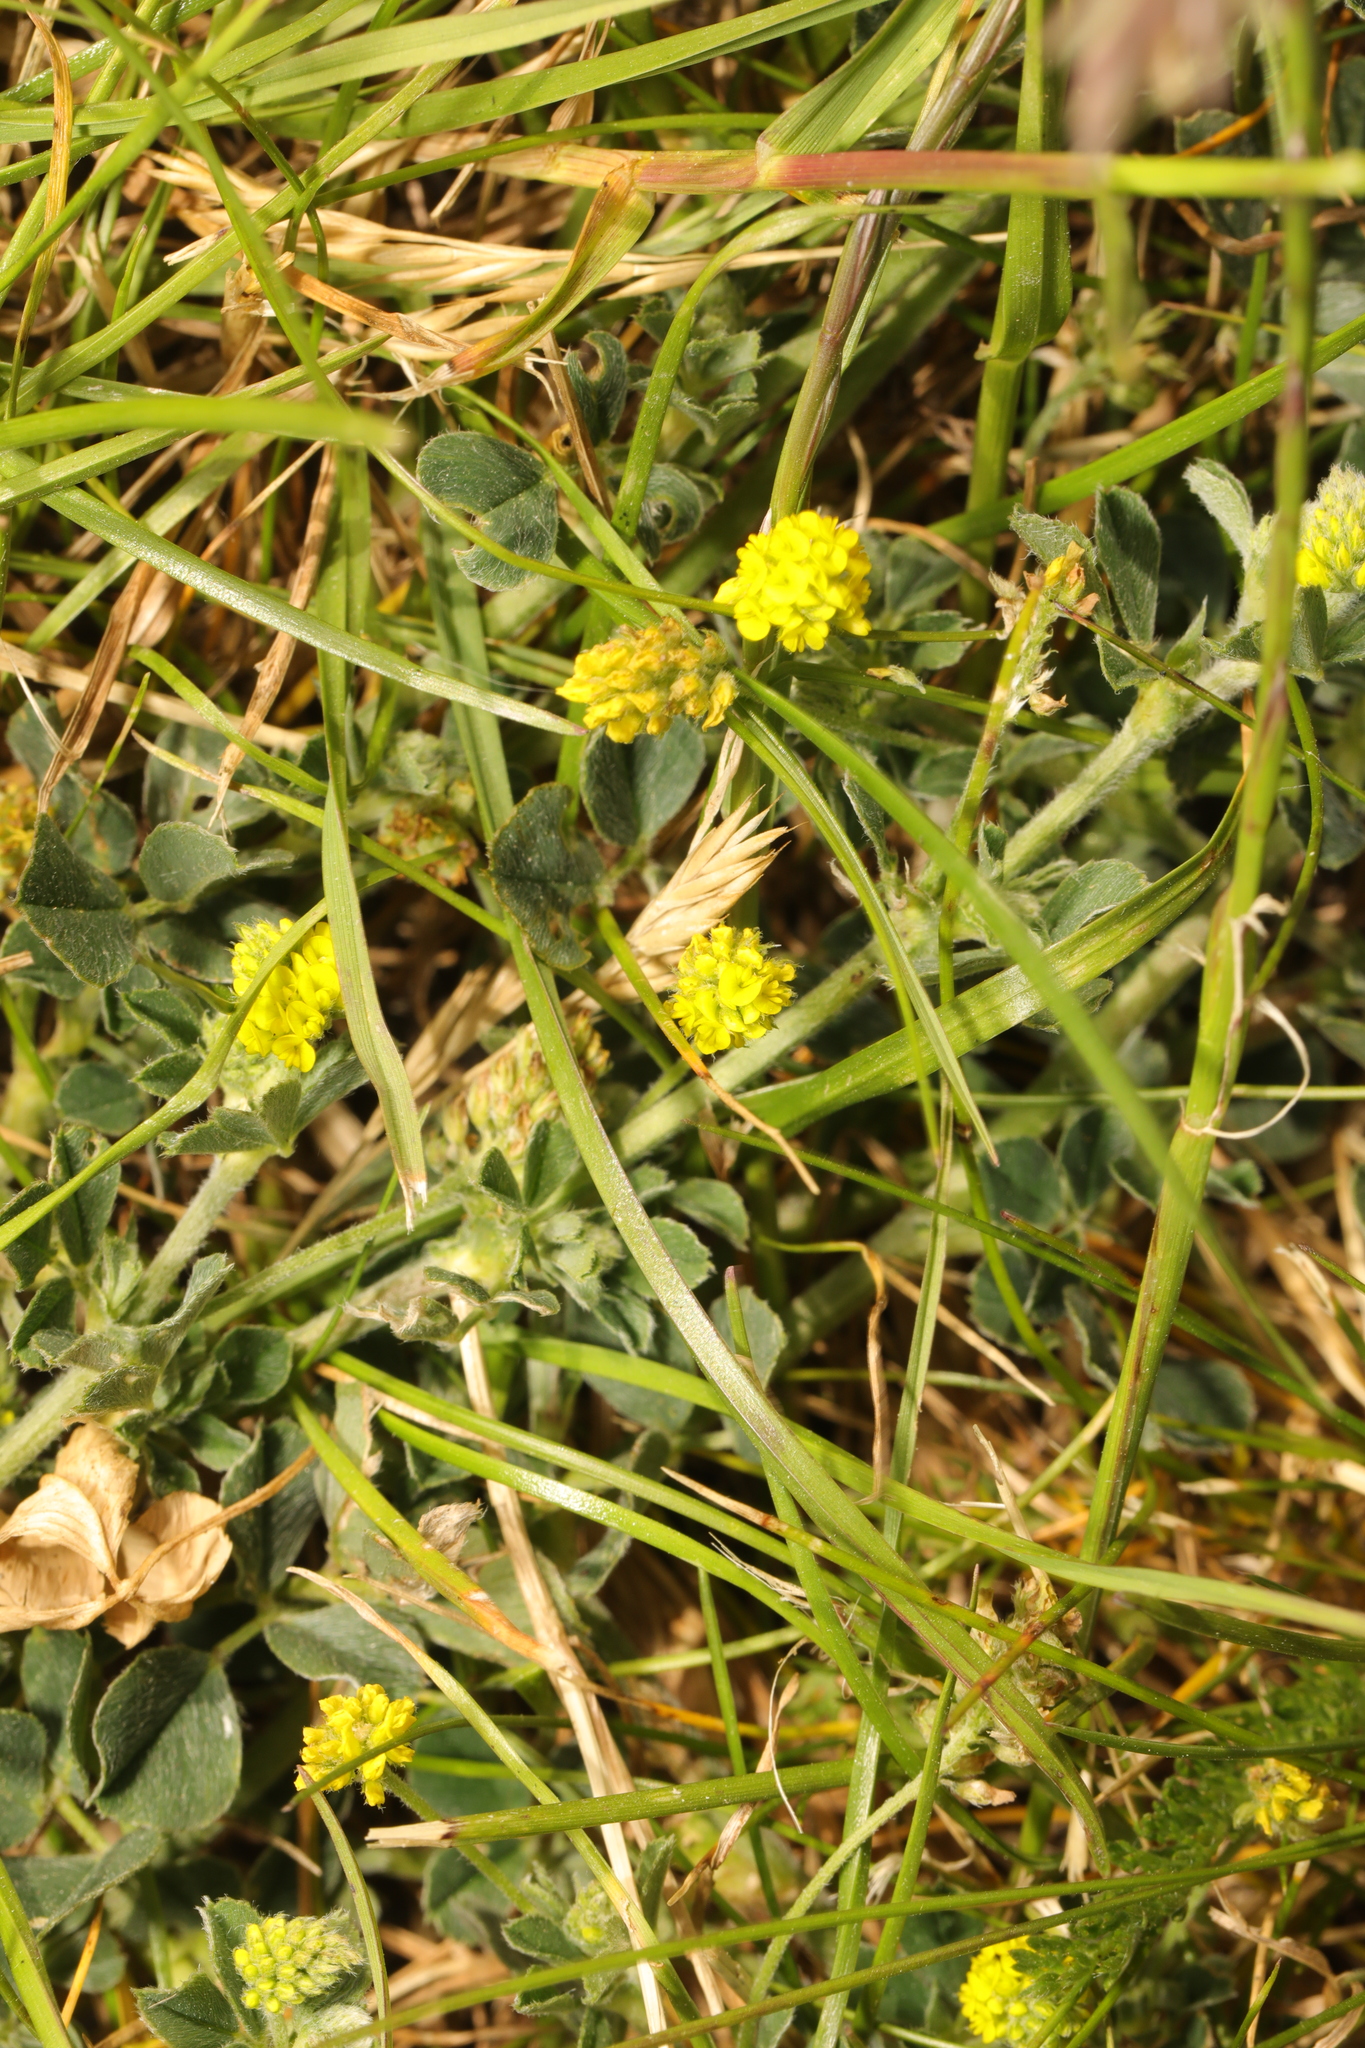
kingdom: Plantae
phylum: Tracheophyta
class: Magnoliopsida
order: Fabales
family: Fabaceae
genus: Medicago
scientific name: Medicago lupulina
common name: Black medick
